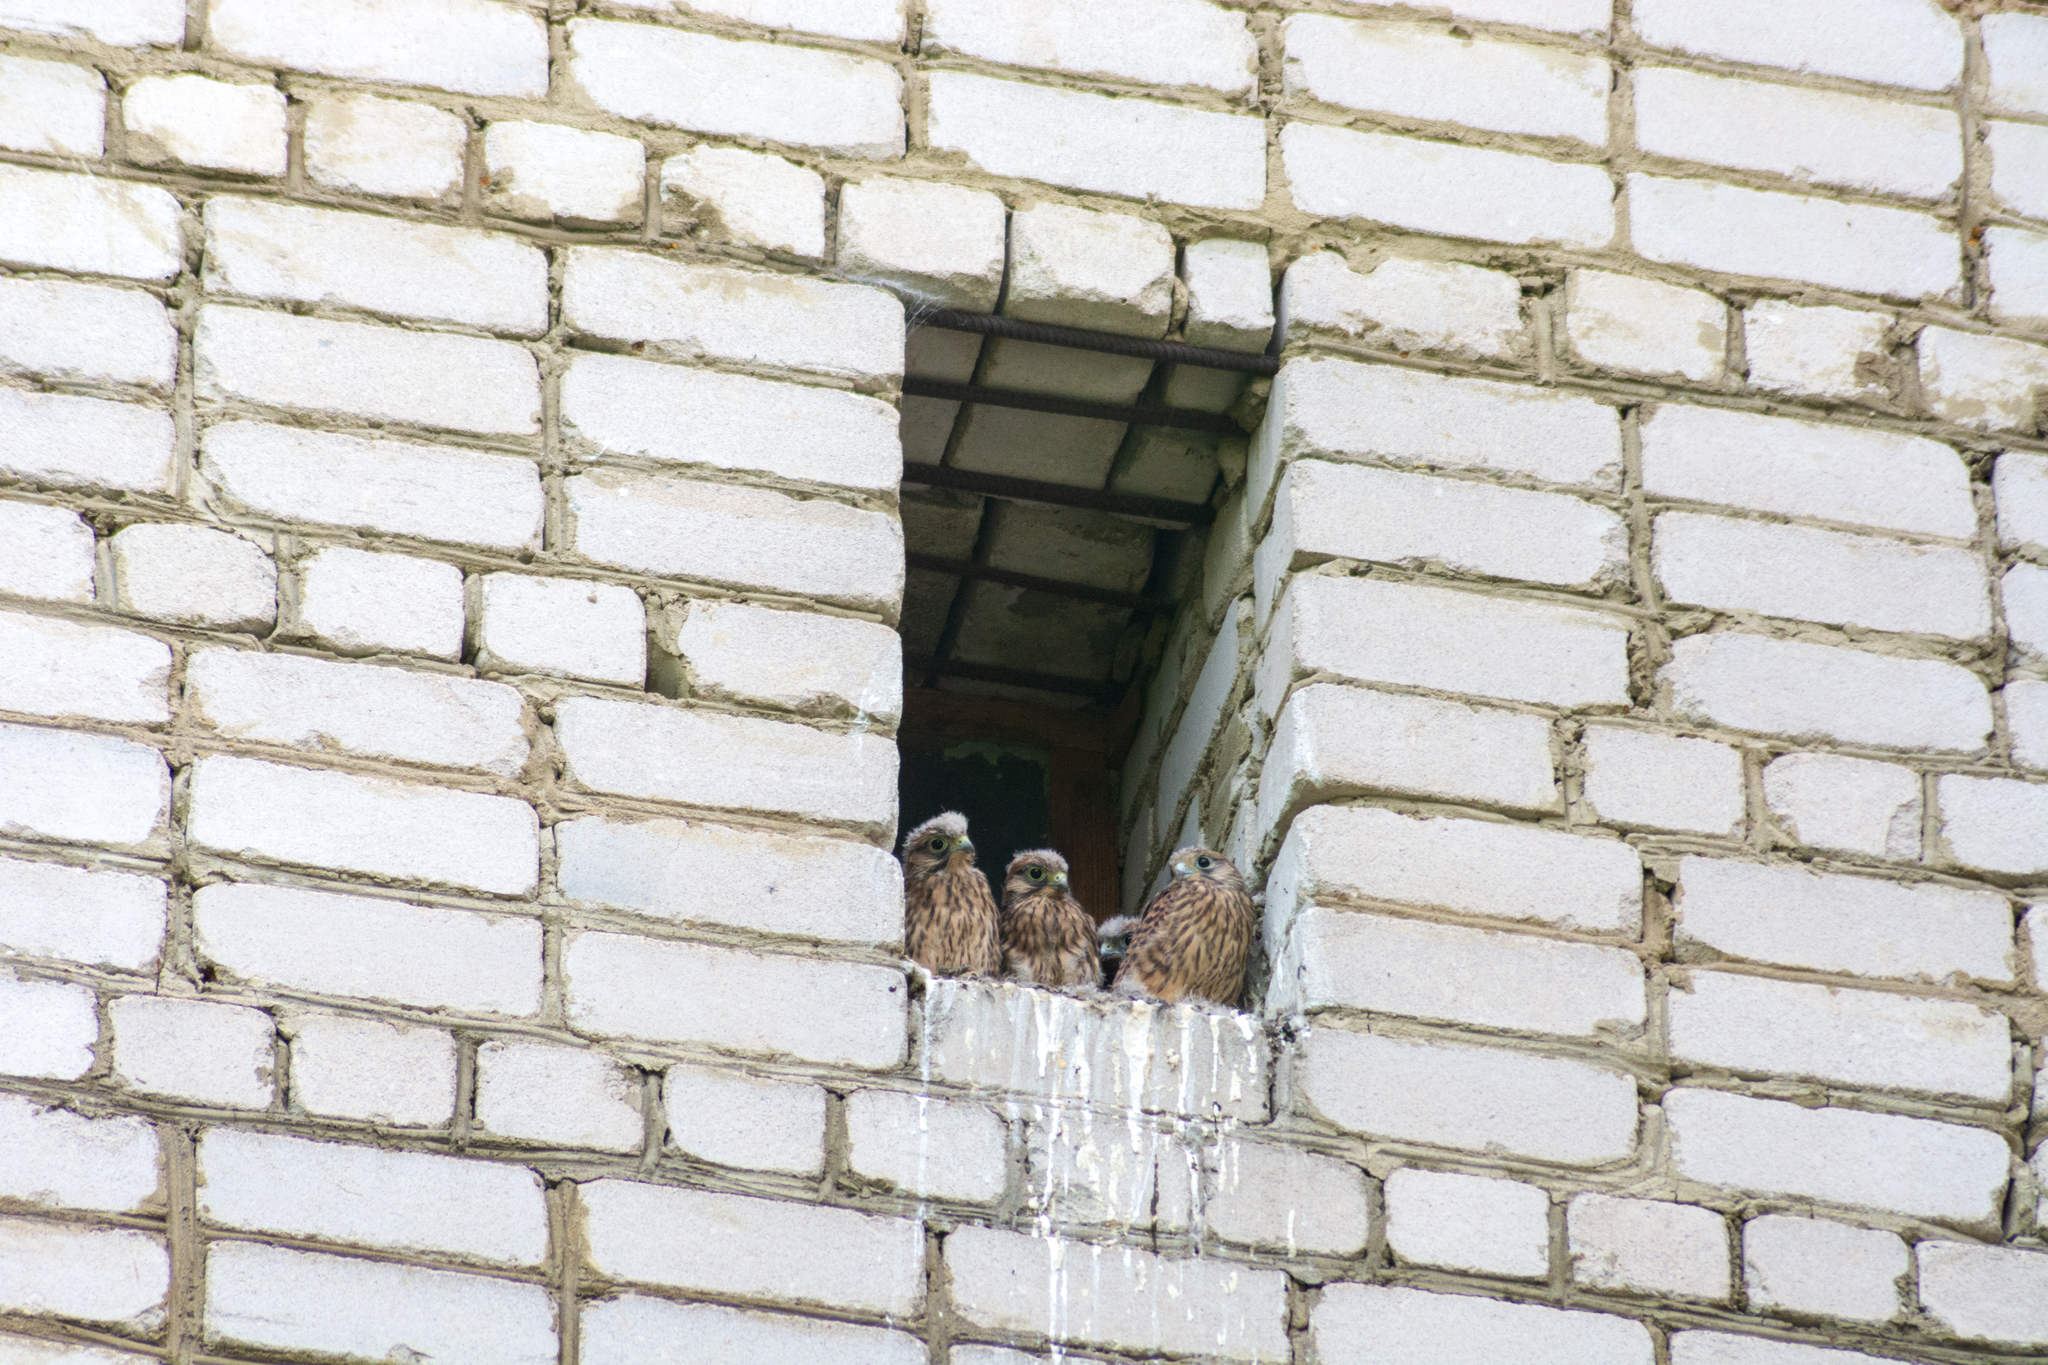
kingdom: Animalia
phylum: Chordata
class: Aves
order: Falconiformes
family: Falconidae
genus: Falco
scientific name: Falco tinnunculus
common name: Common kestrel
